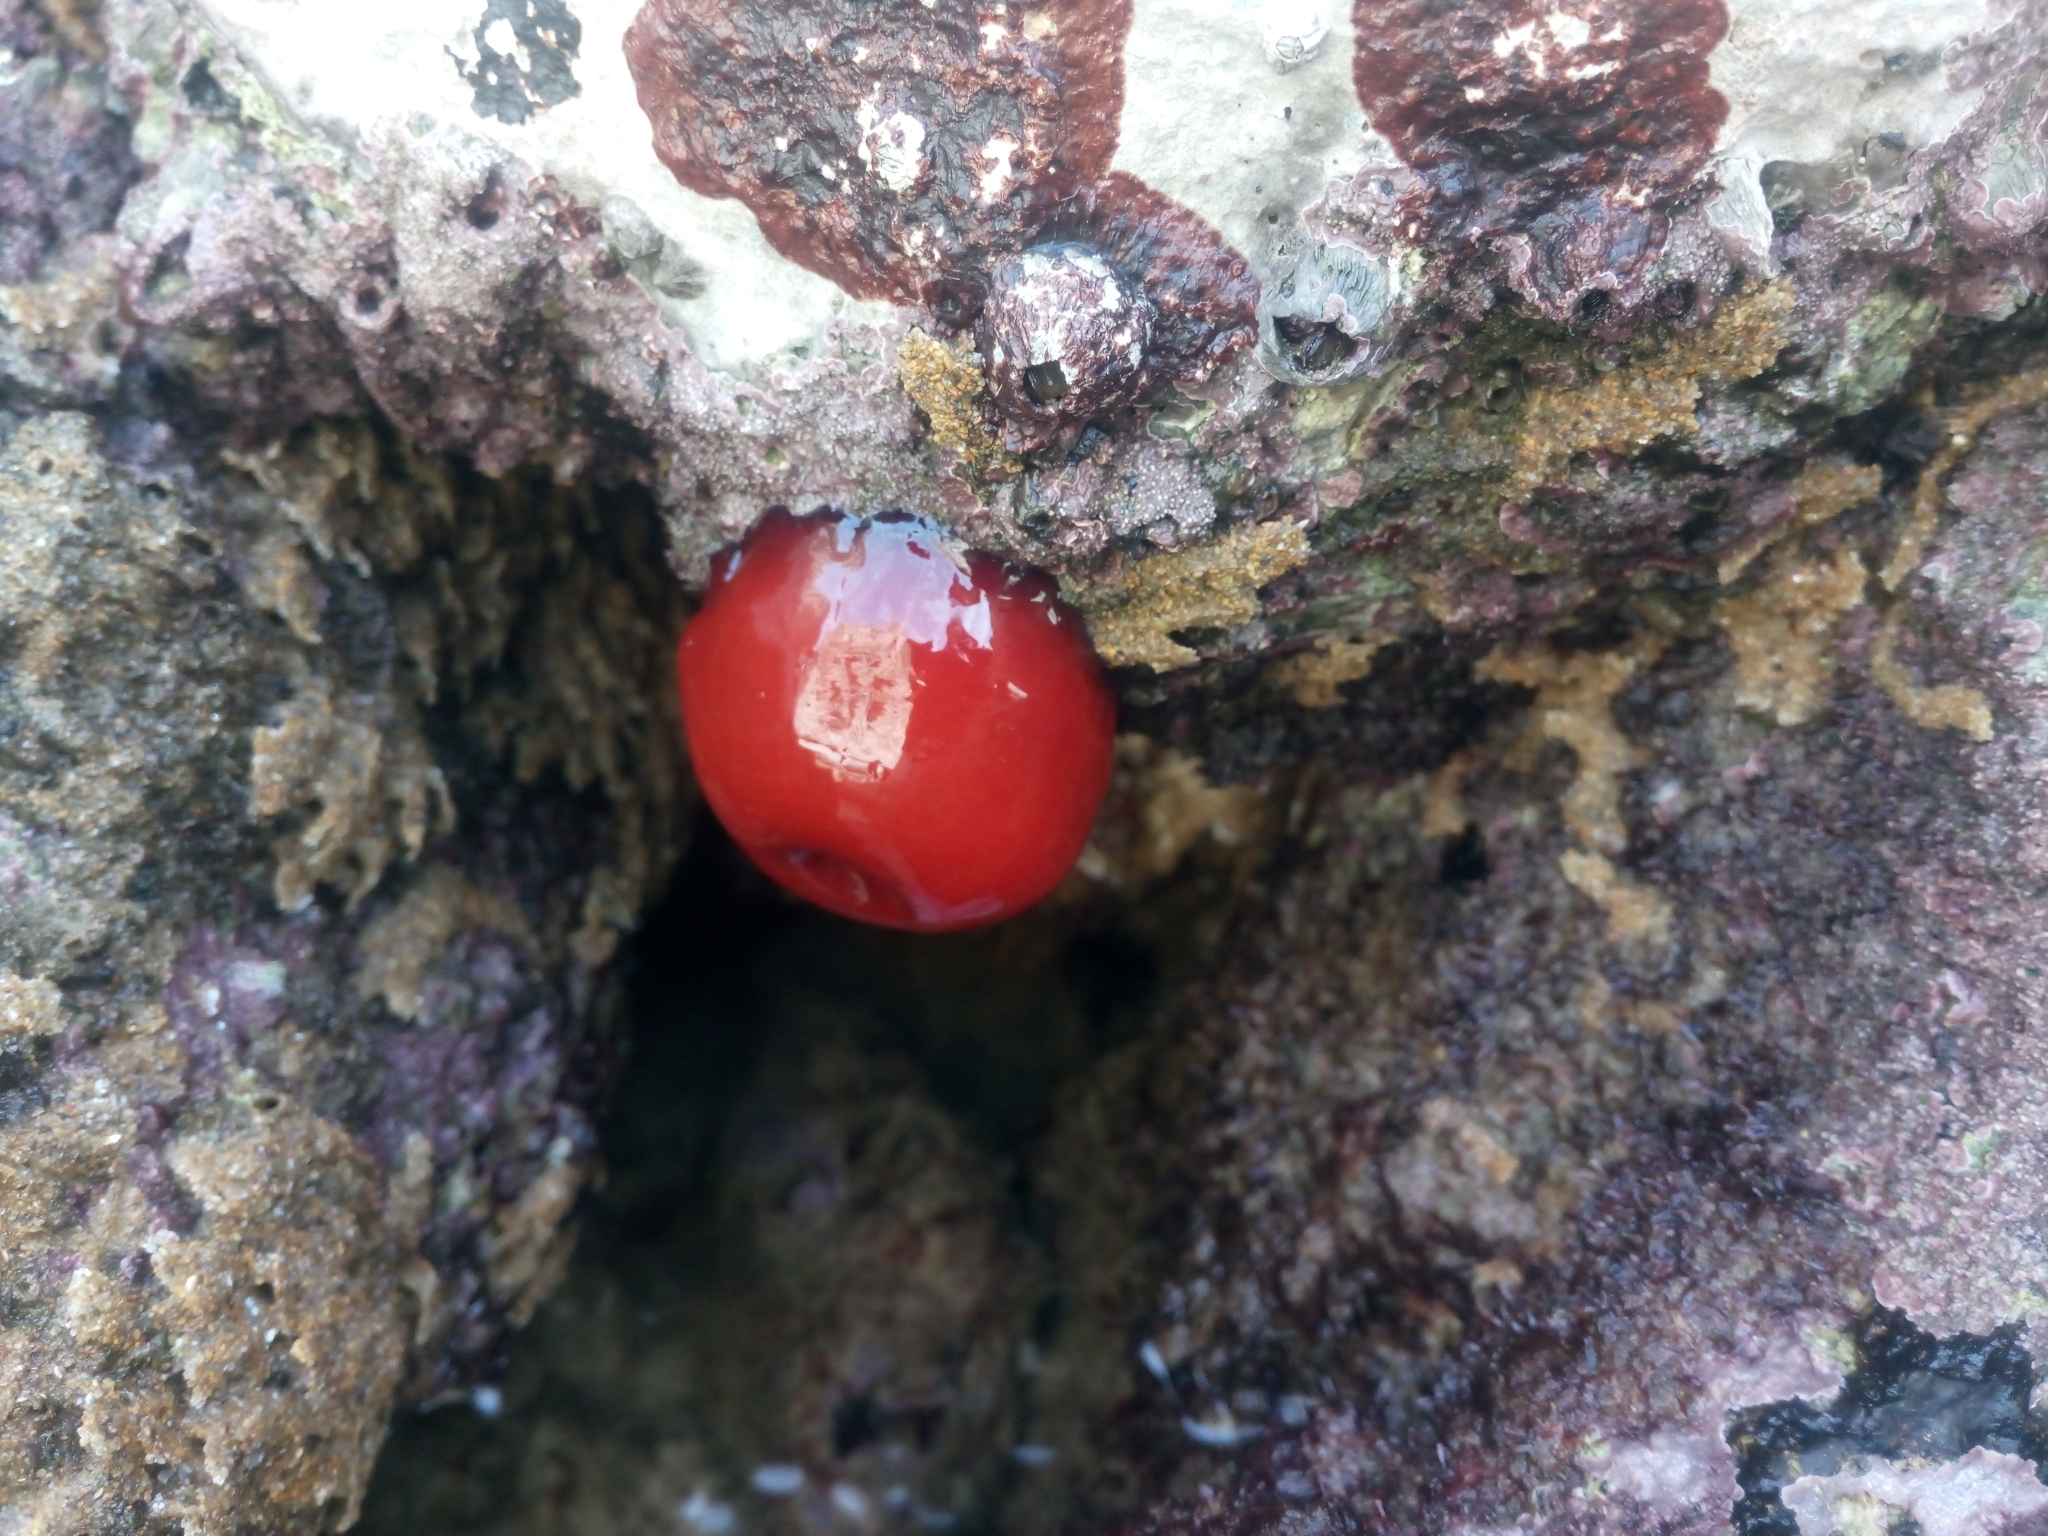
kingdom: Animalia
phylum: Cnidaria
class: Anthozoa
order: Actiniaria
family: Actiniidae
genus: Actinia
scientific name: Actinia mediterranea
